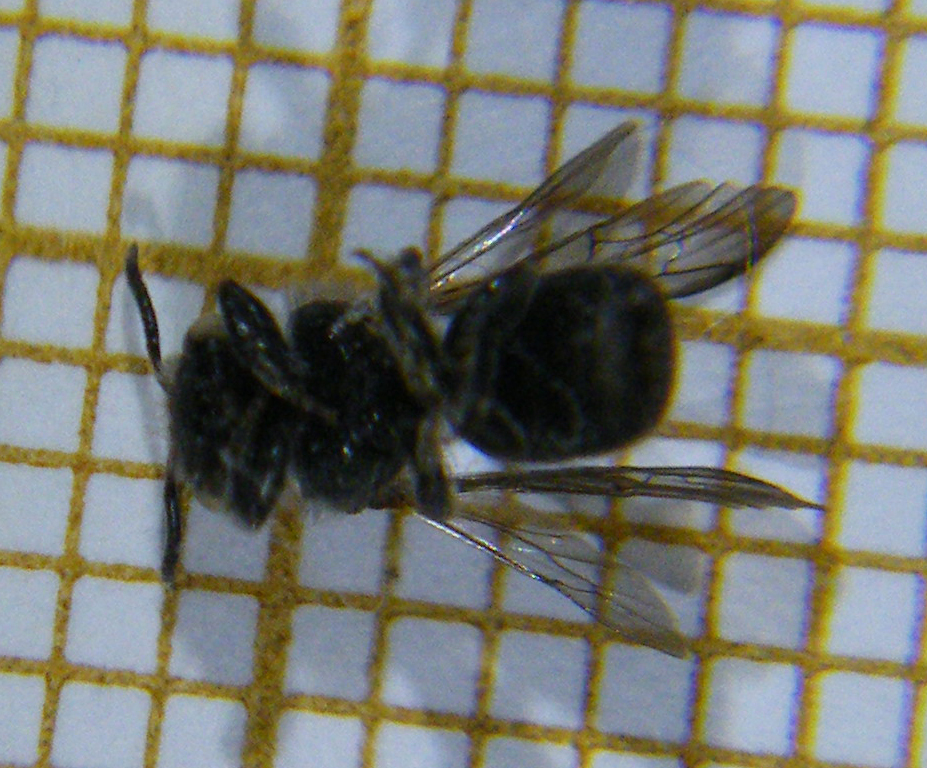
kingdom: Animalia
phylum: Arthropoda
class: Insecta
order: Hymenoptera
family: Megachilidae
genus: Stelis
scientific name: Stelis ornatula
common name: Spotted dark bee
